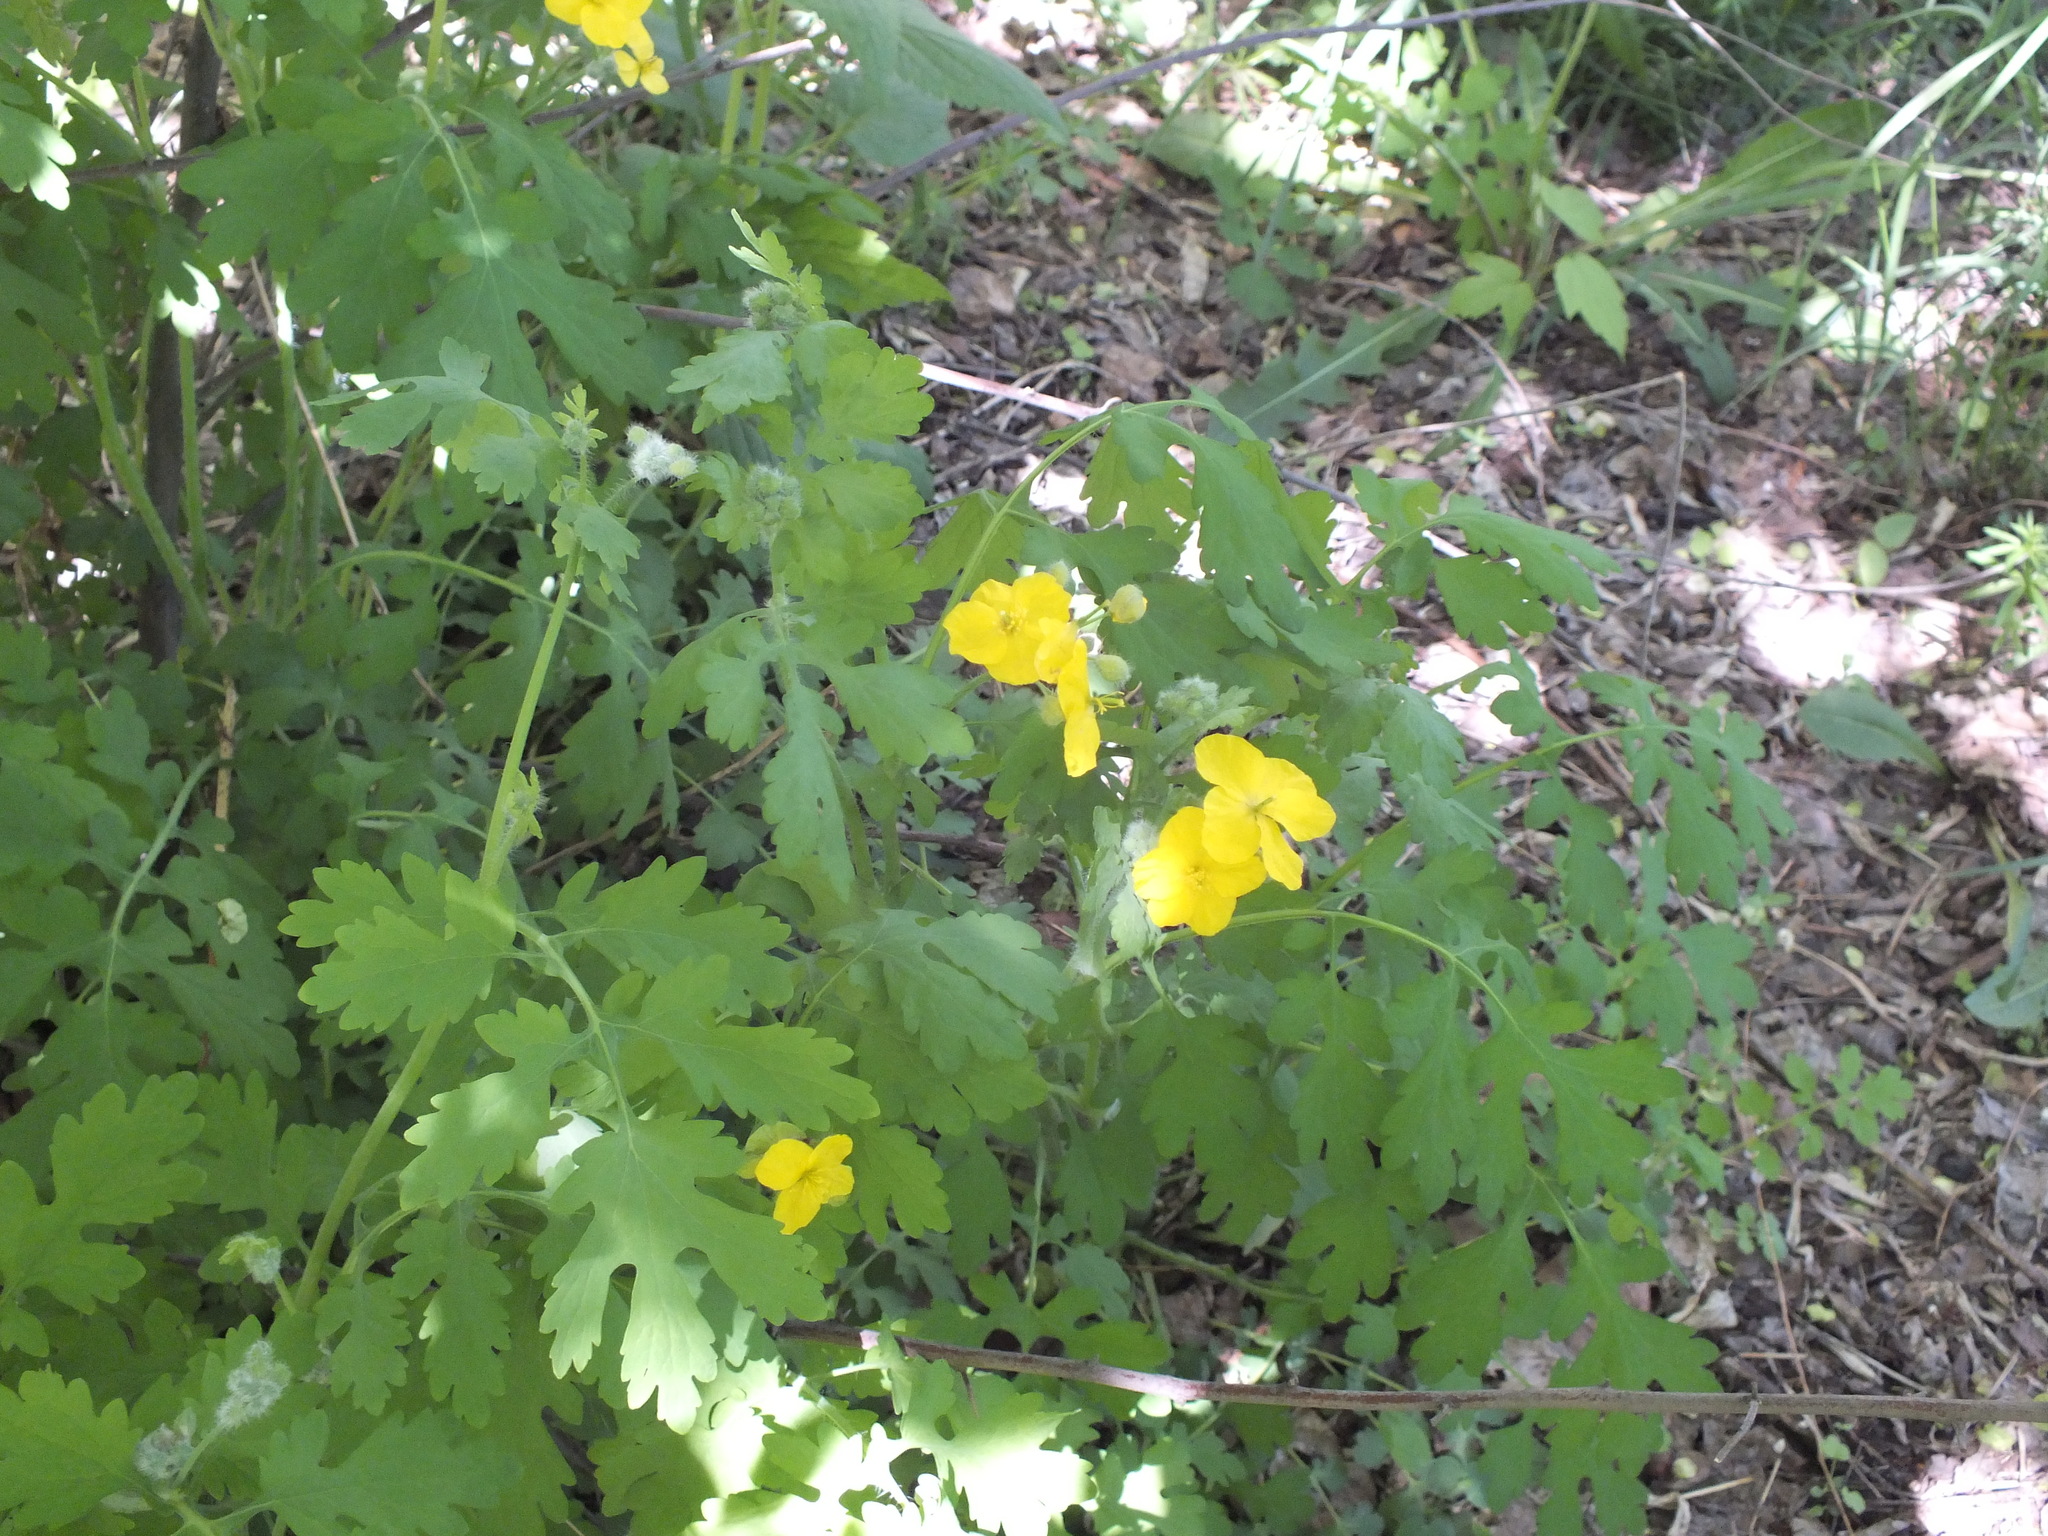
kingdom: Plantae
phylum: Tracheophyta
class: Magnoliopsida
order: Ranunculales
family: Papaveraceae
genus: Chelidonium
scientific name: Chelidonium majus
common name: Greater celandine
